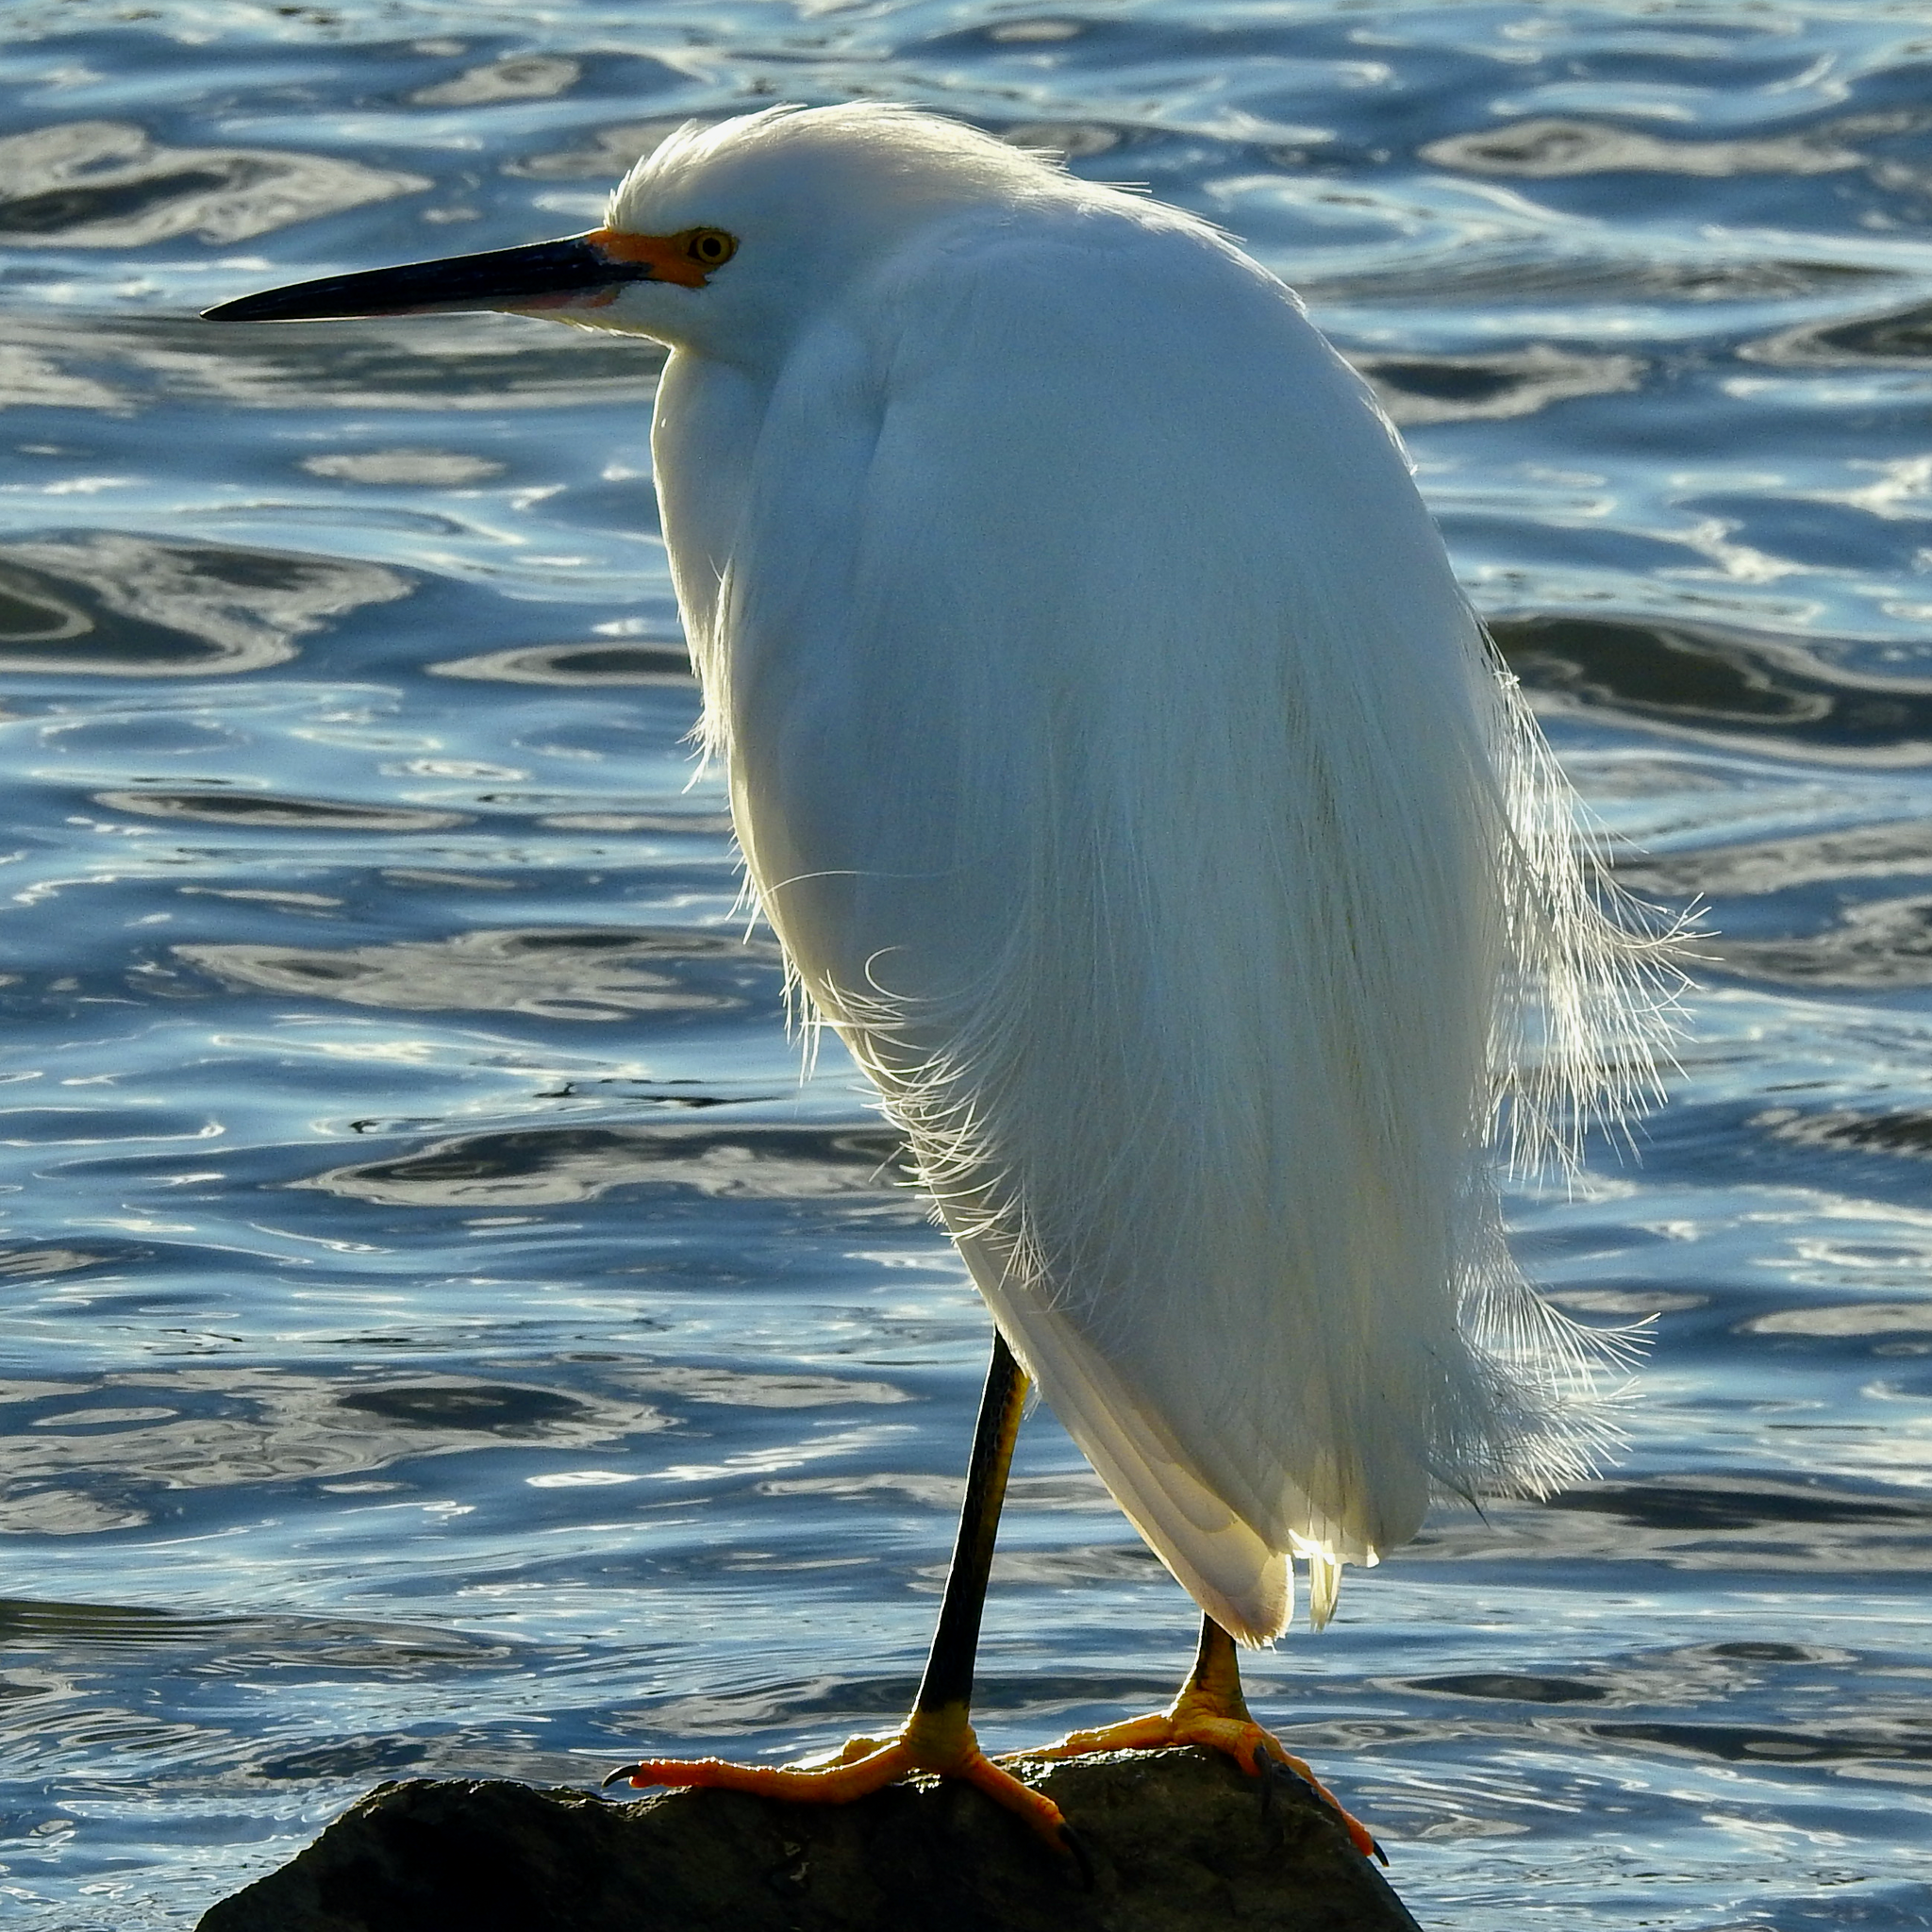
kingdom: Animalia
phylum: Chordata
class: Aves
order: Pelecaniformes
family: Ardeidae
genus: Egretta
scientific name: Egretta thula
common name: Snowy egret
